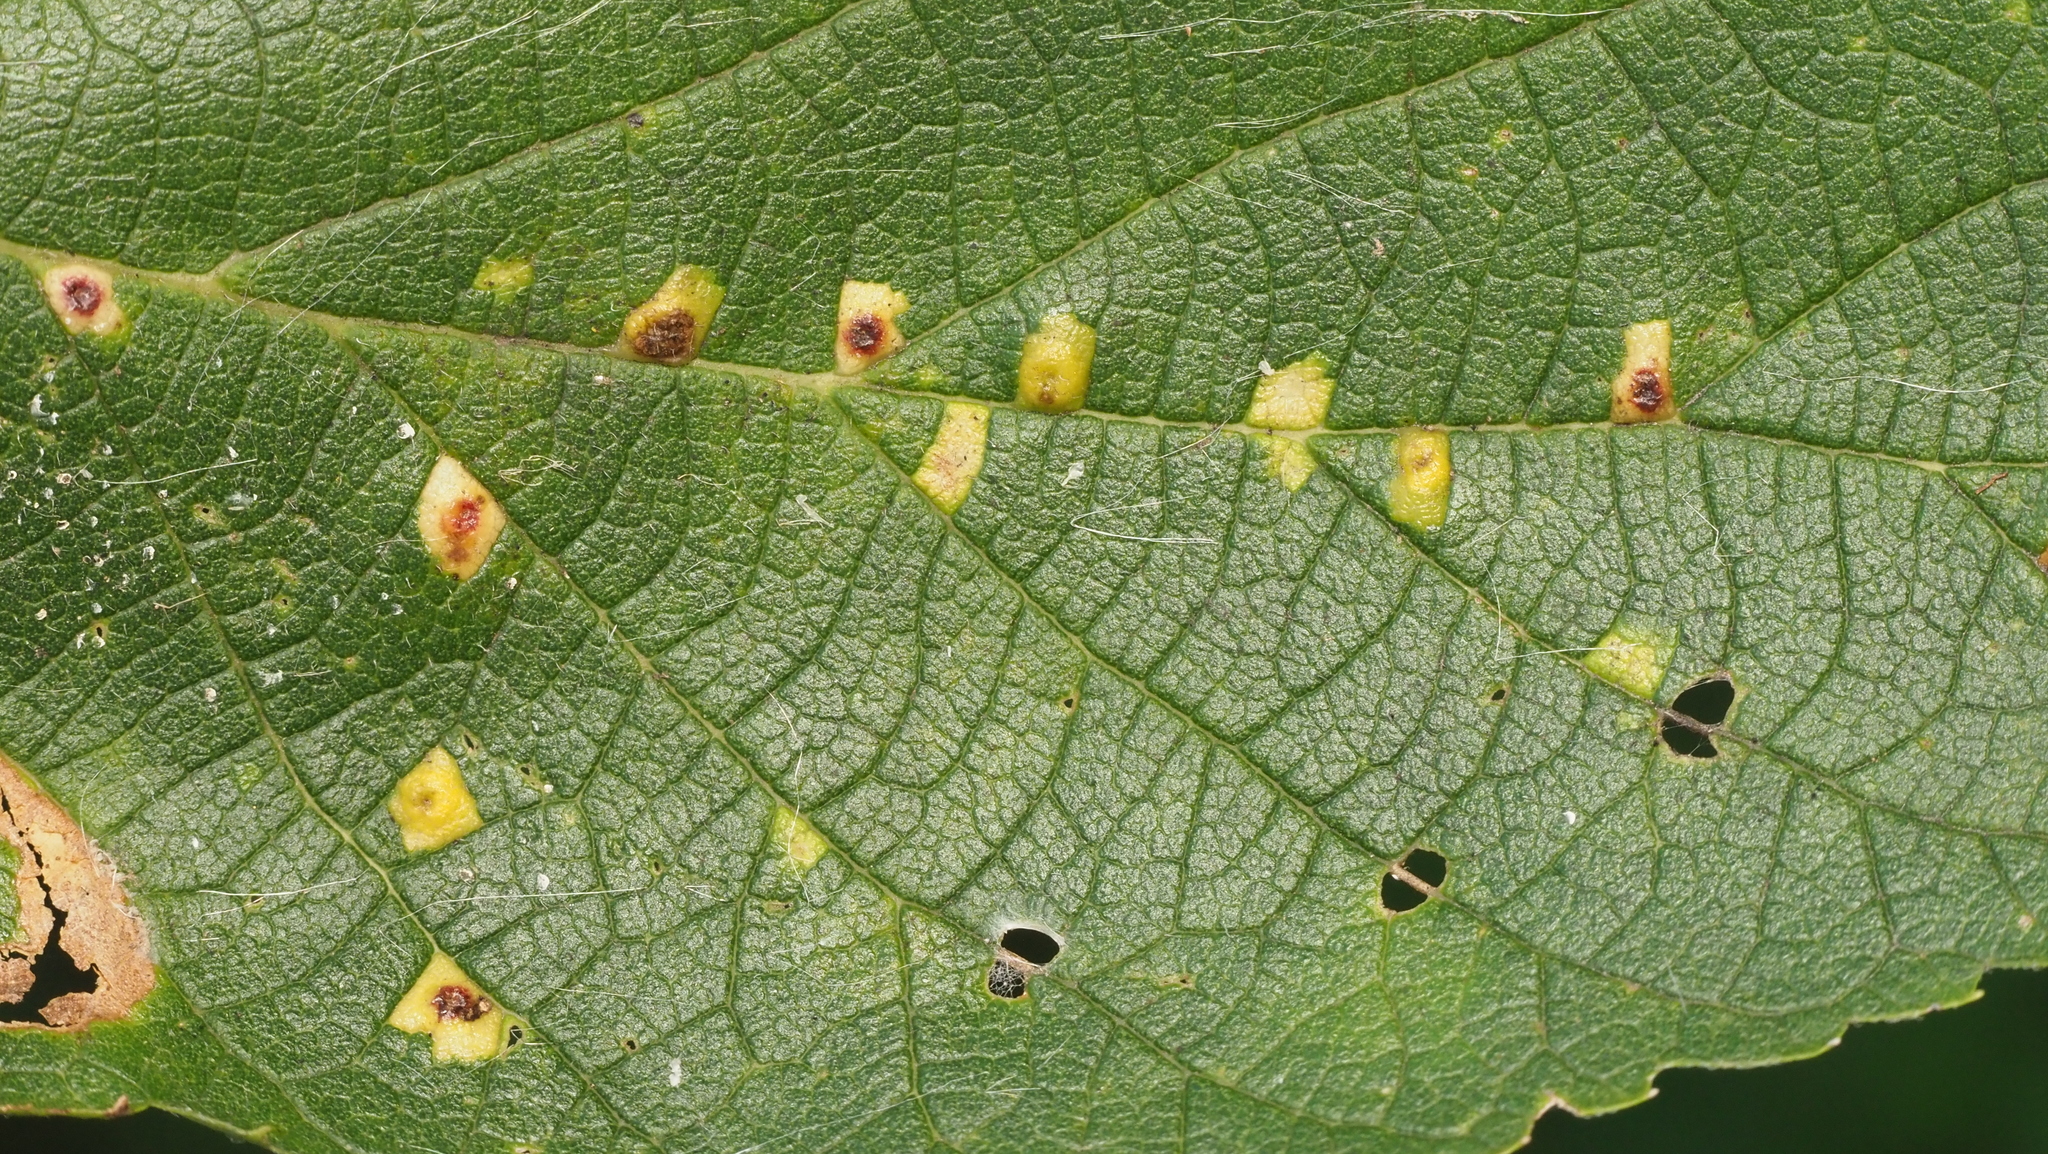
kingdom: Animalia
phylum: Arthropoda
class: Insecta
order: Hemiptera
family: Aphalaridae
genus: Pachypsylla
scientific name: Pachypsylla celtidisvesicula
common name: Hackberry blister gall psyllid
